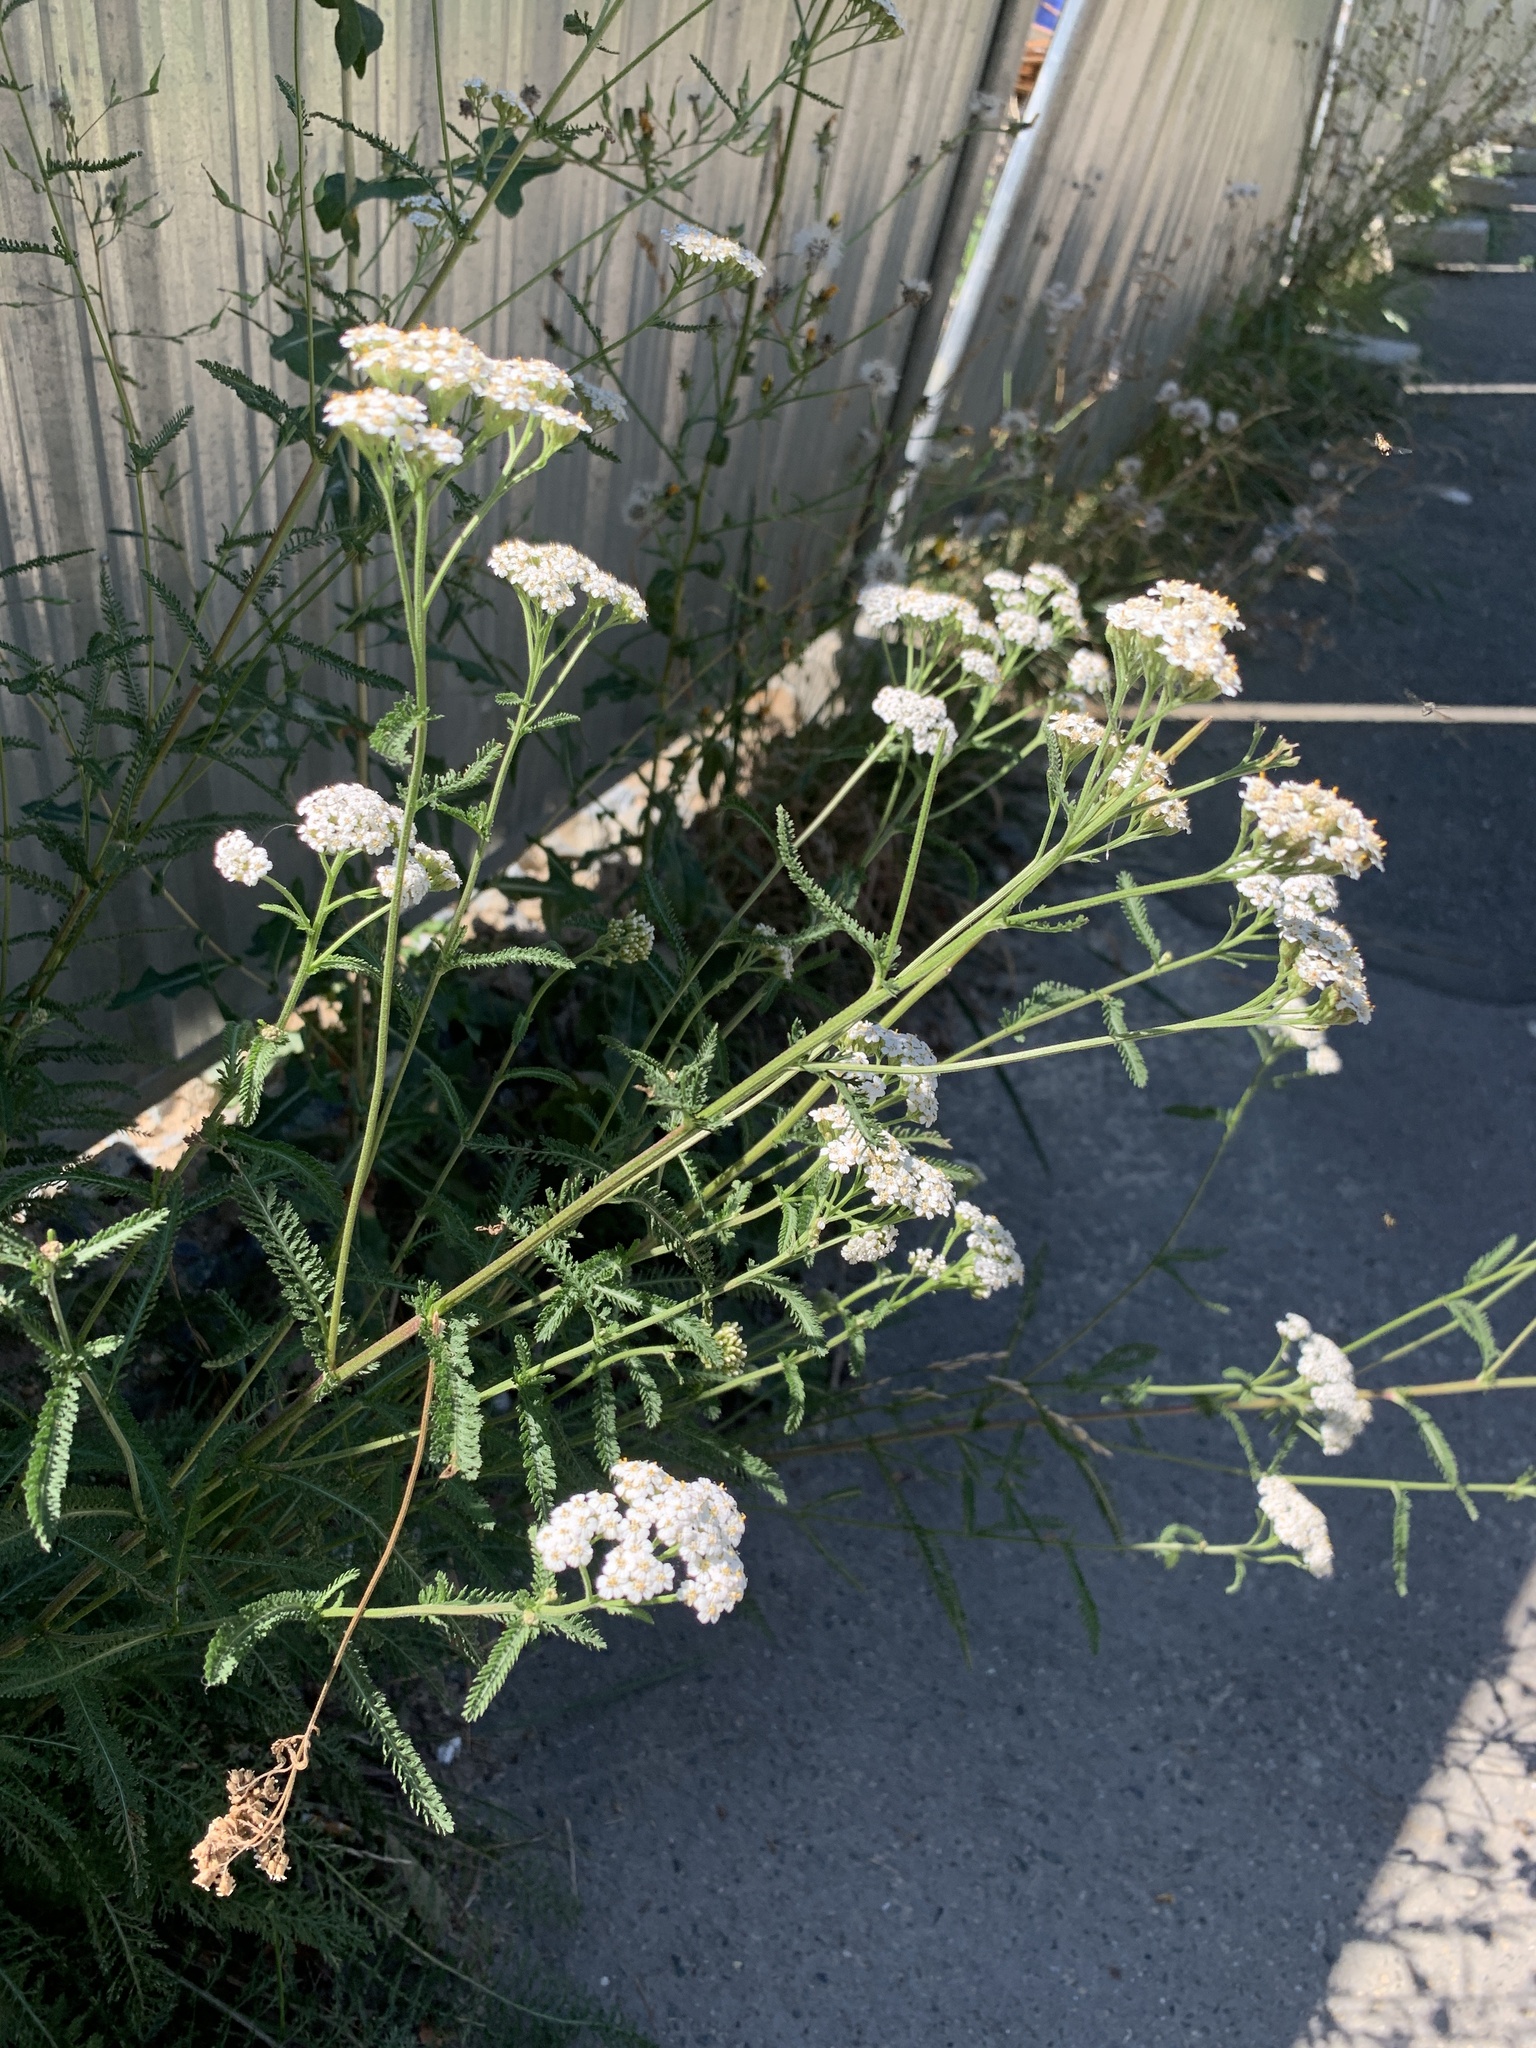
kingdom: Plantae
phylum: Tracheophyta
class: Magnoliopsida
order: Asterales
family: Asteraceae
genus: Achillea
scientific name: Achillea millefolium
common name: Yarrow
